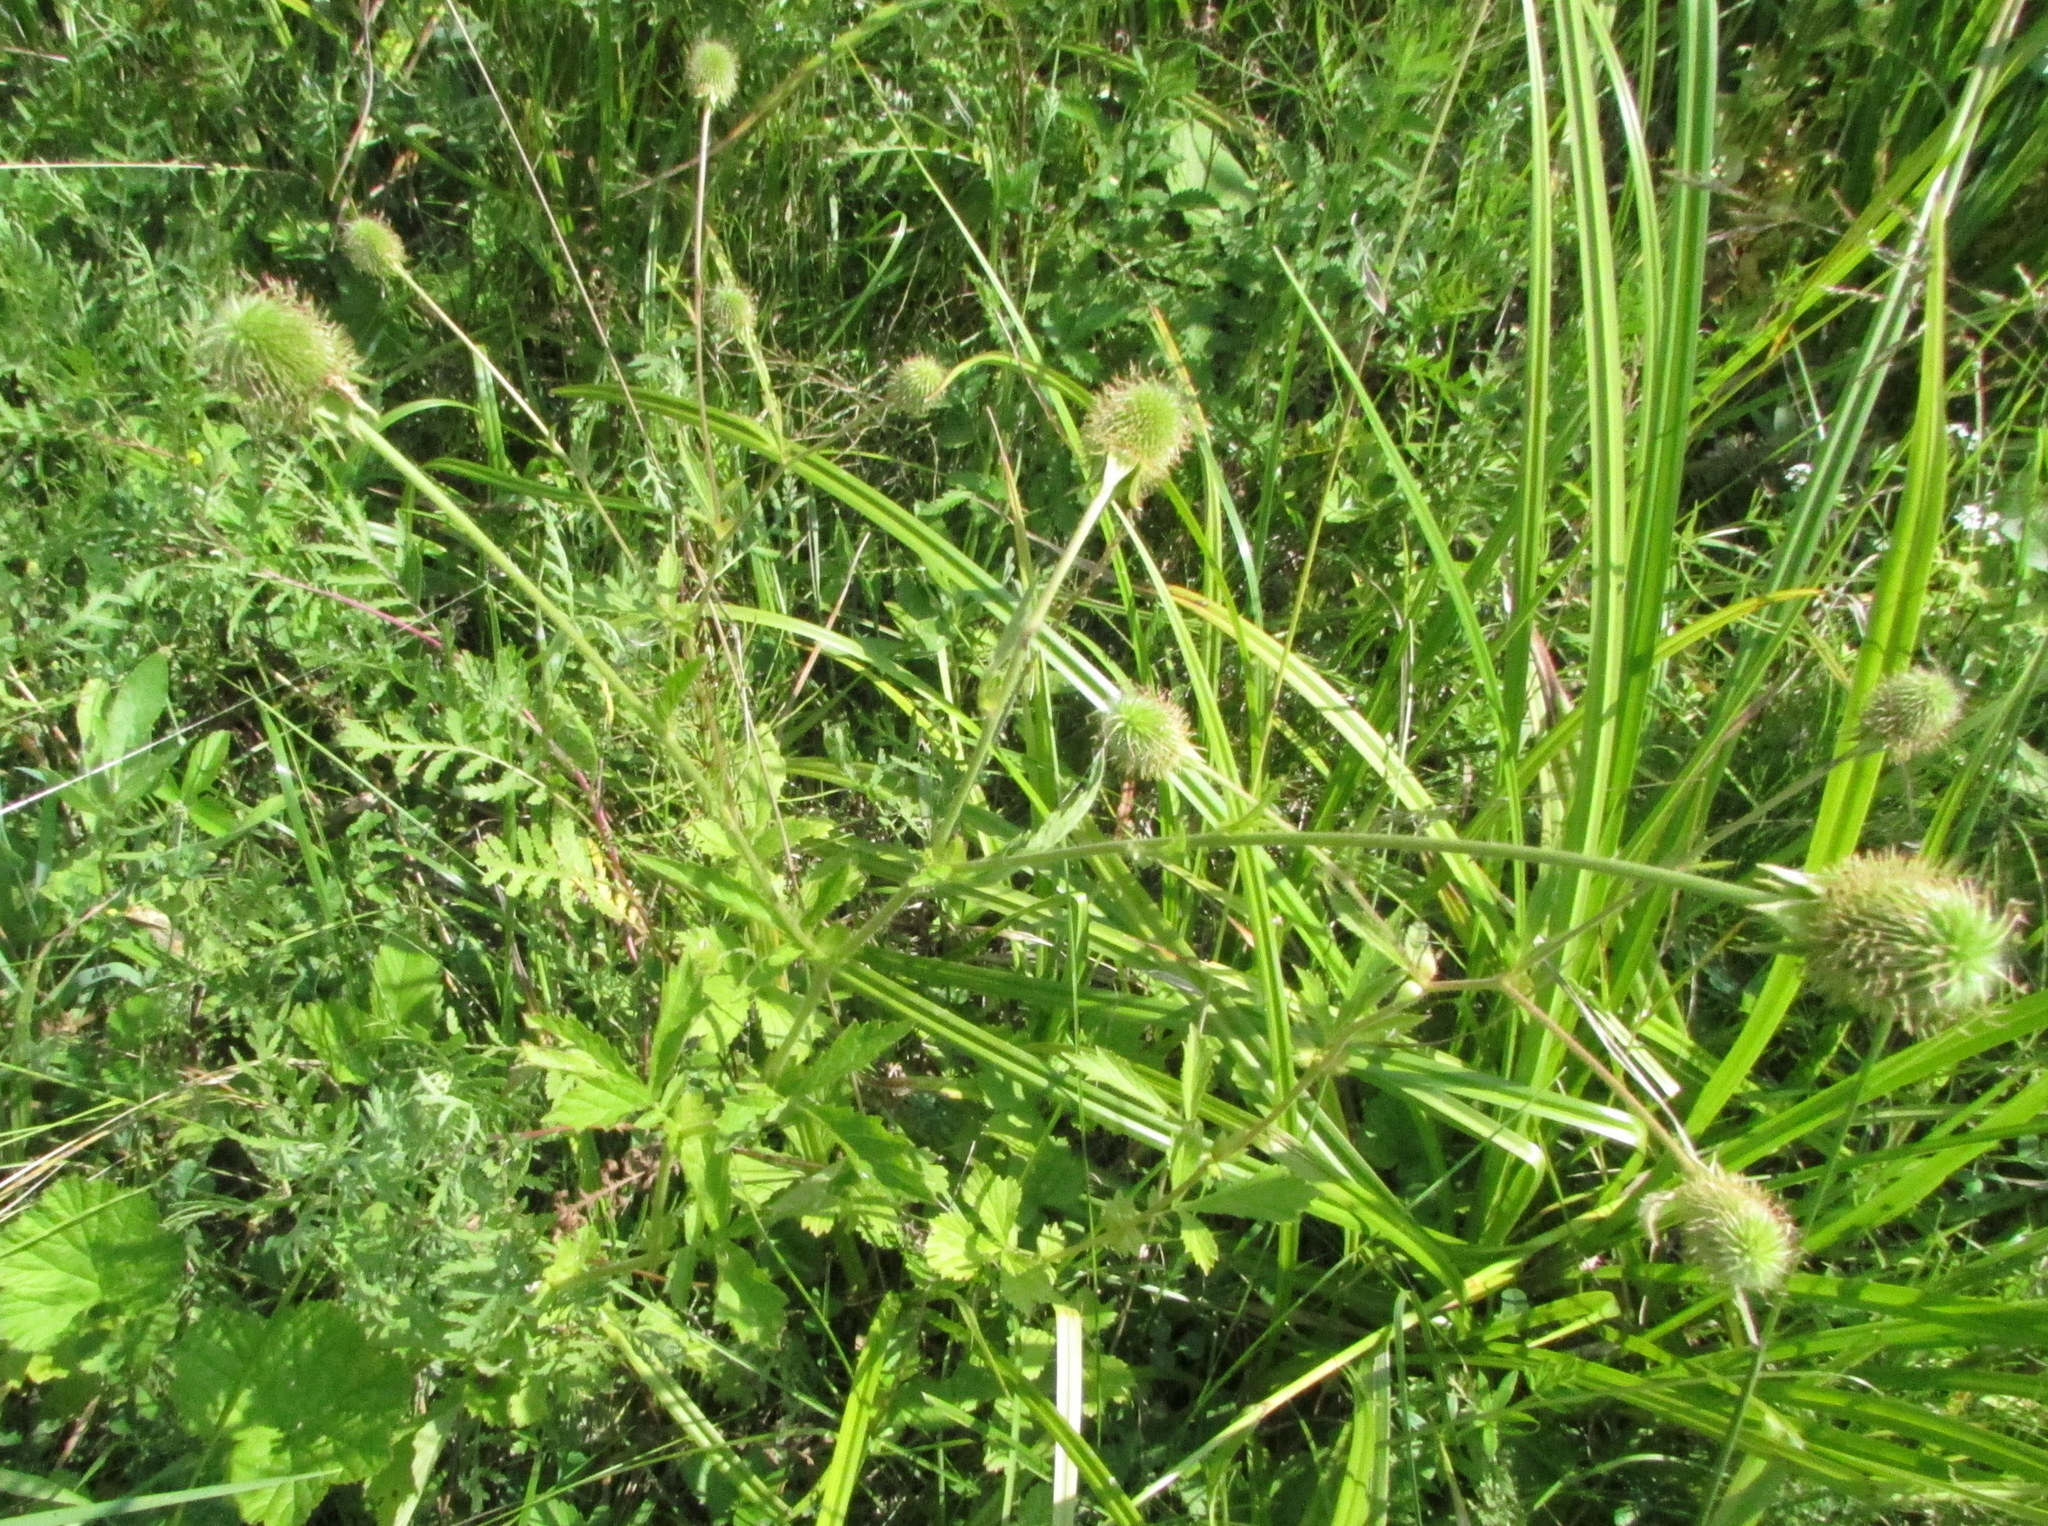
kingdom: Plantae
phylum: Tracheophyta
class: Magnoliopsida
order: Rosales
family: Rosaceae
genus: Geum
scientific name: Geum aleppicum
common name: Yellow avens
